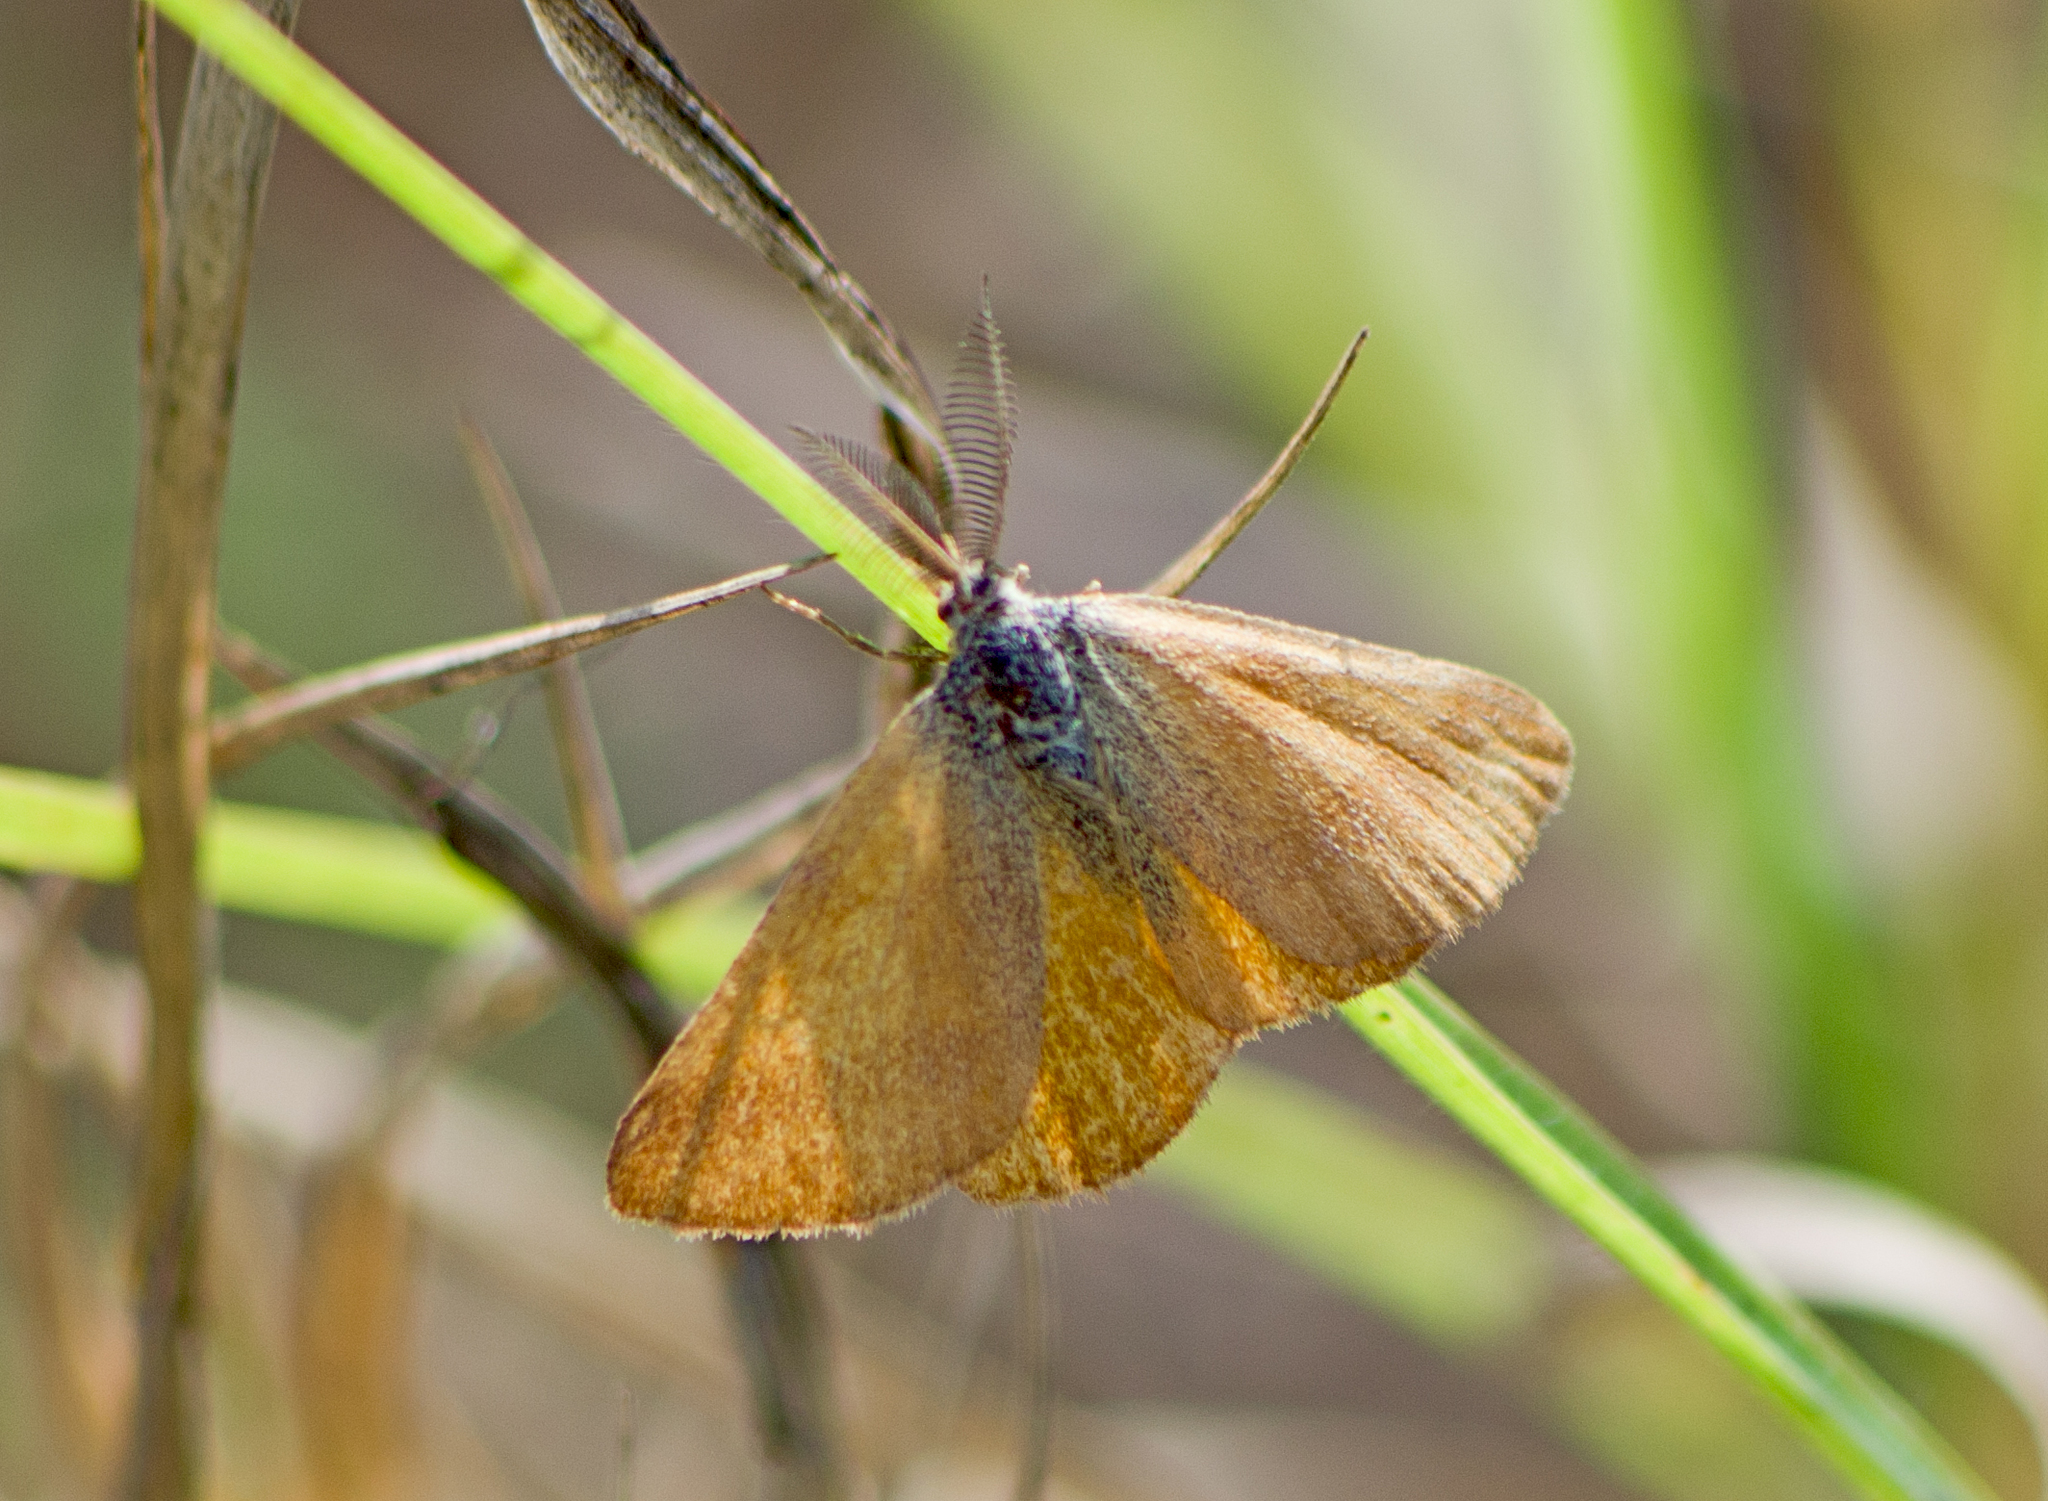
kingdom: Animalia
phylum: Arthropoda
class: Insecta
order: Lepidoptera
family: Geometridae
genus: Lythria
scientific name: Lythria purpuraria
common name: Purple-barred yellow
